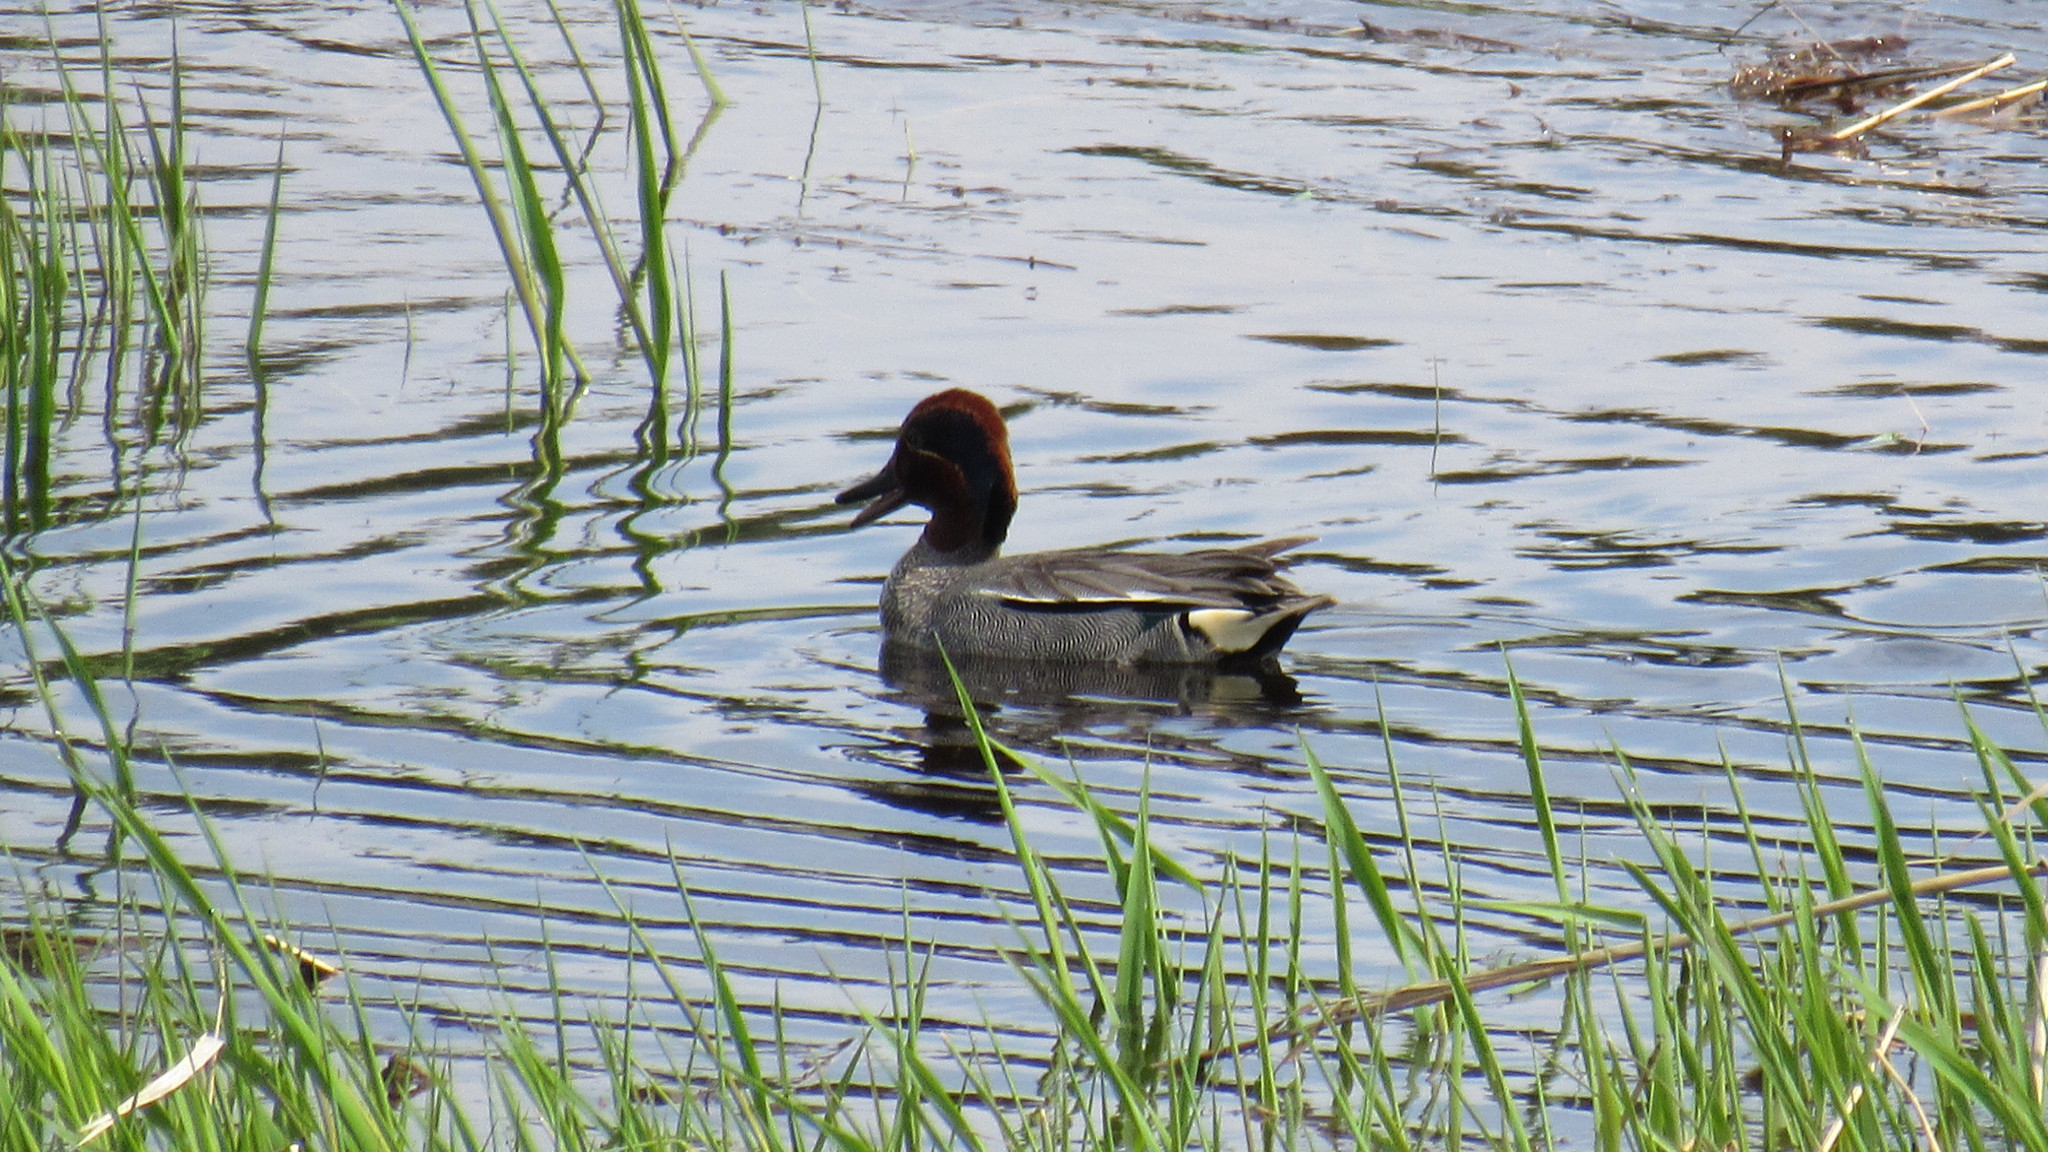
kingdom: Animalia
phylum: Chordata
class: Aves
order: Anseriformes
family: Anatidae
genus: Anas
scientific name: Anas crecca
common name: Eurasian teal
